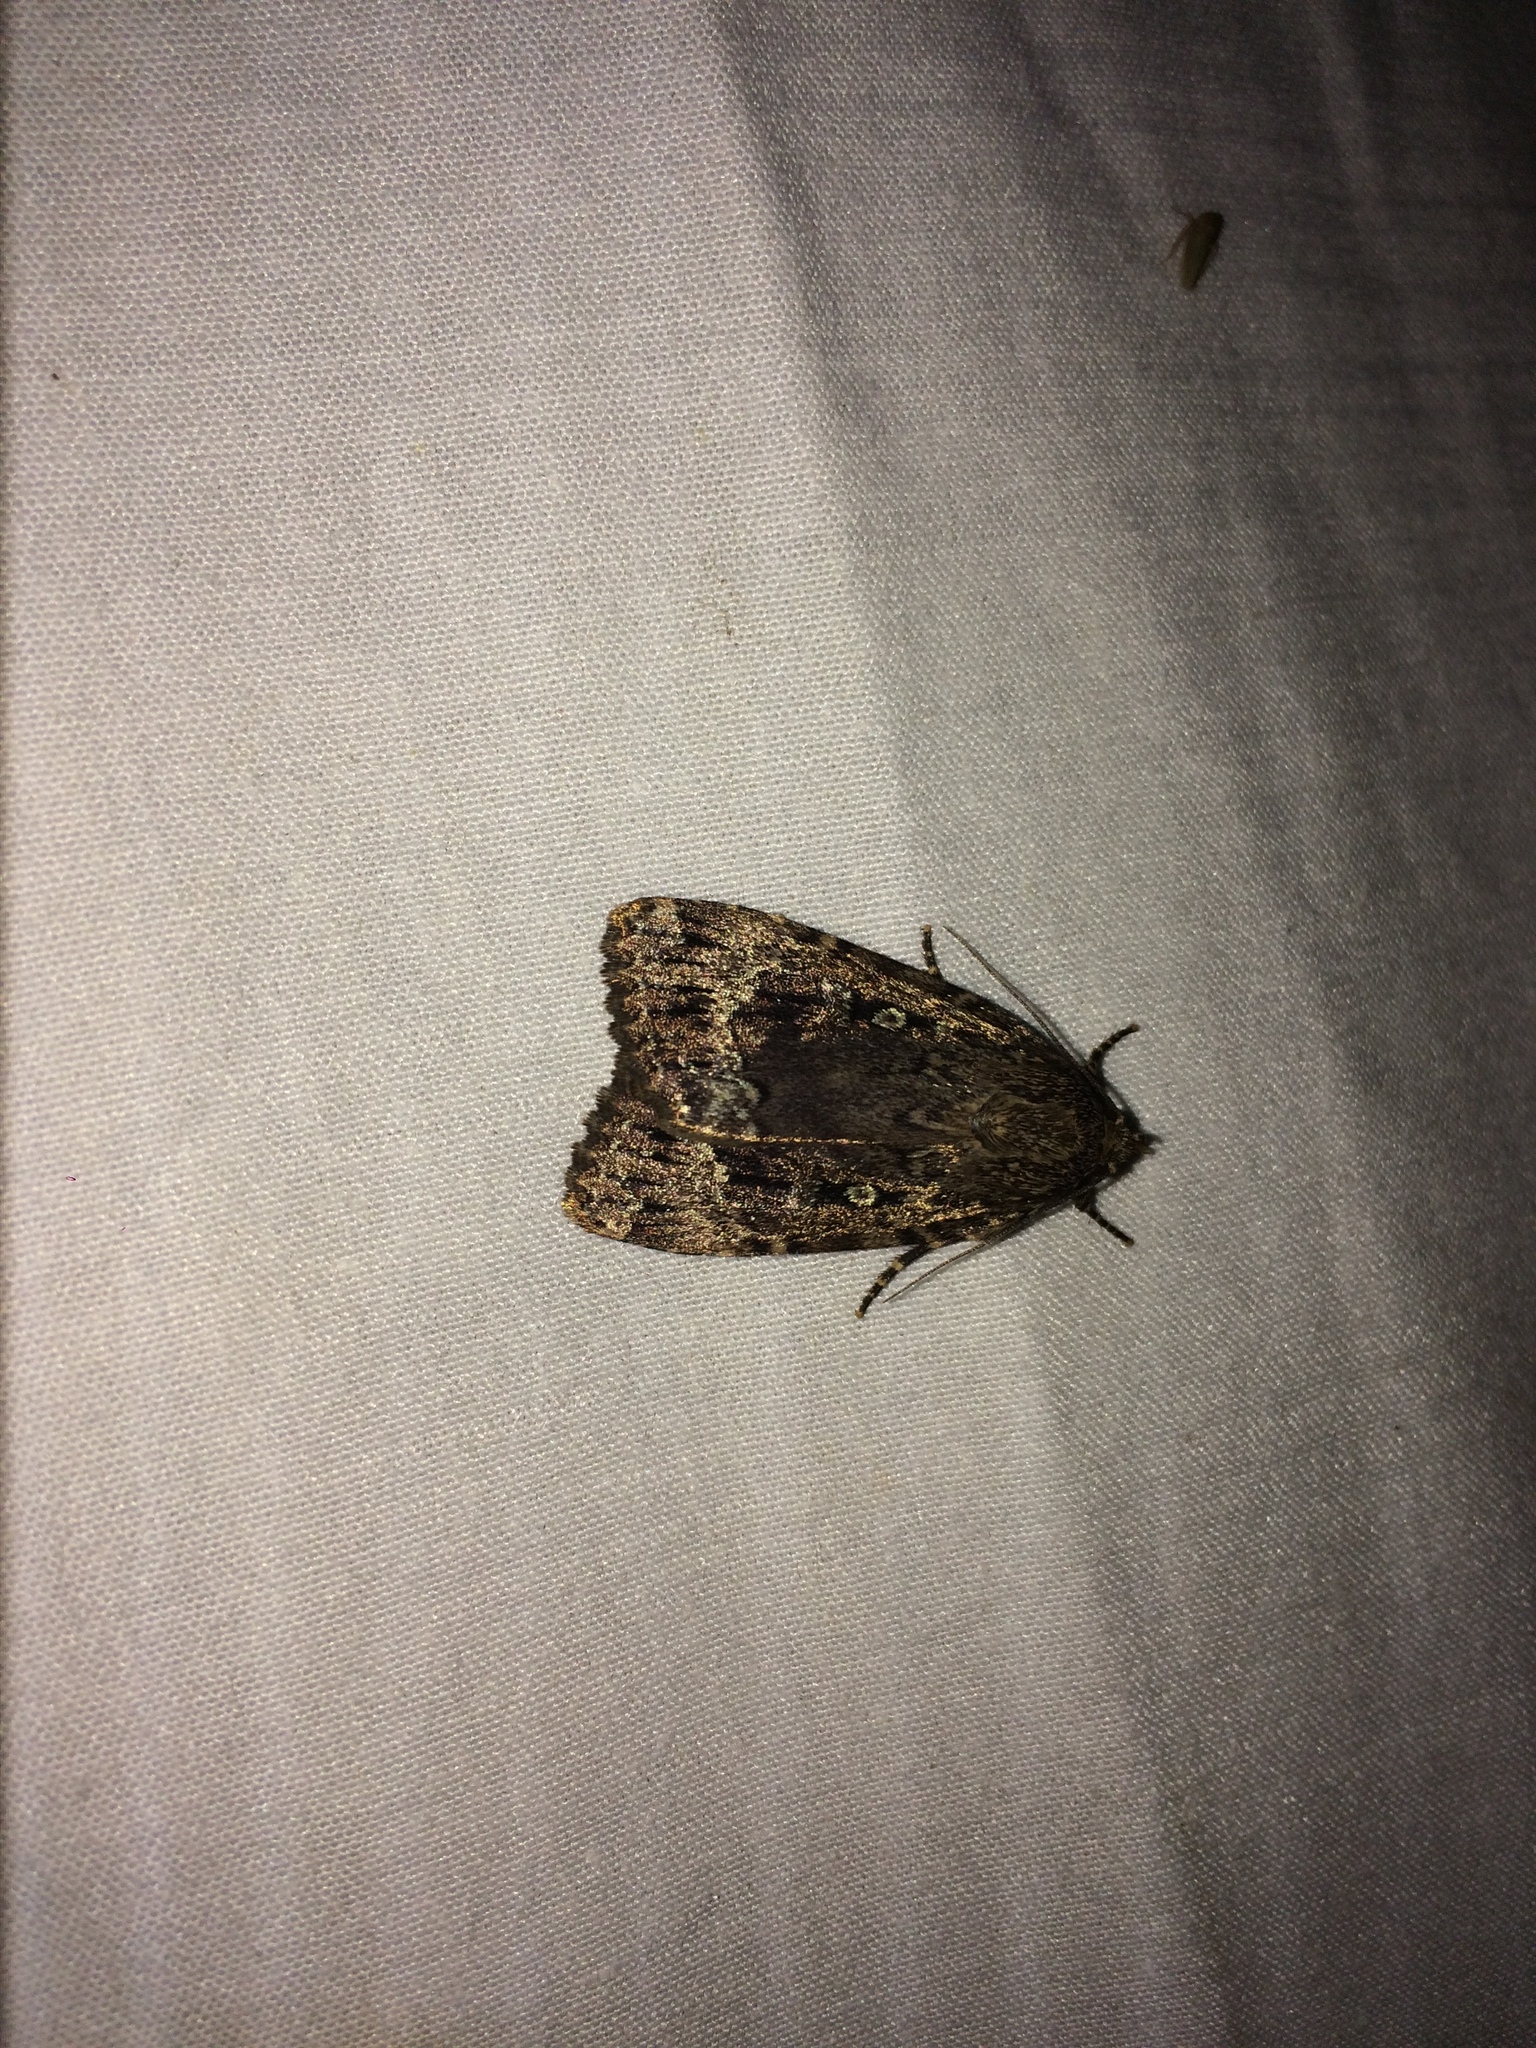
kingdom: Animalia
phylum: Arthropoda
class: Insecta
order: Lepidoptera
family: Noctuidae
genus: Amphipyra
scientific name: Amphipyra pyramidoides
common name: American copper underwing
